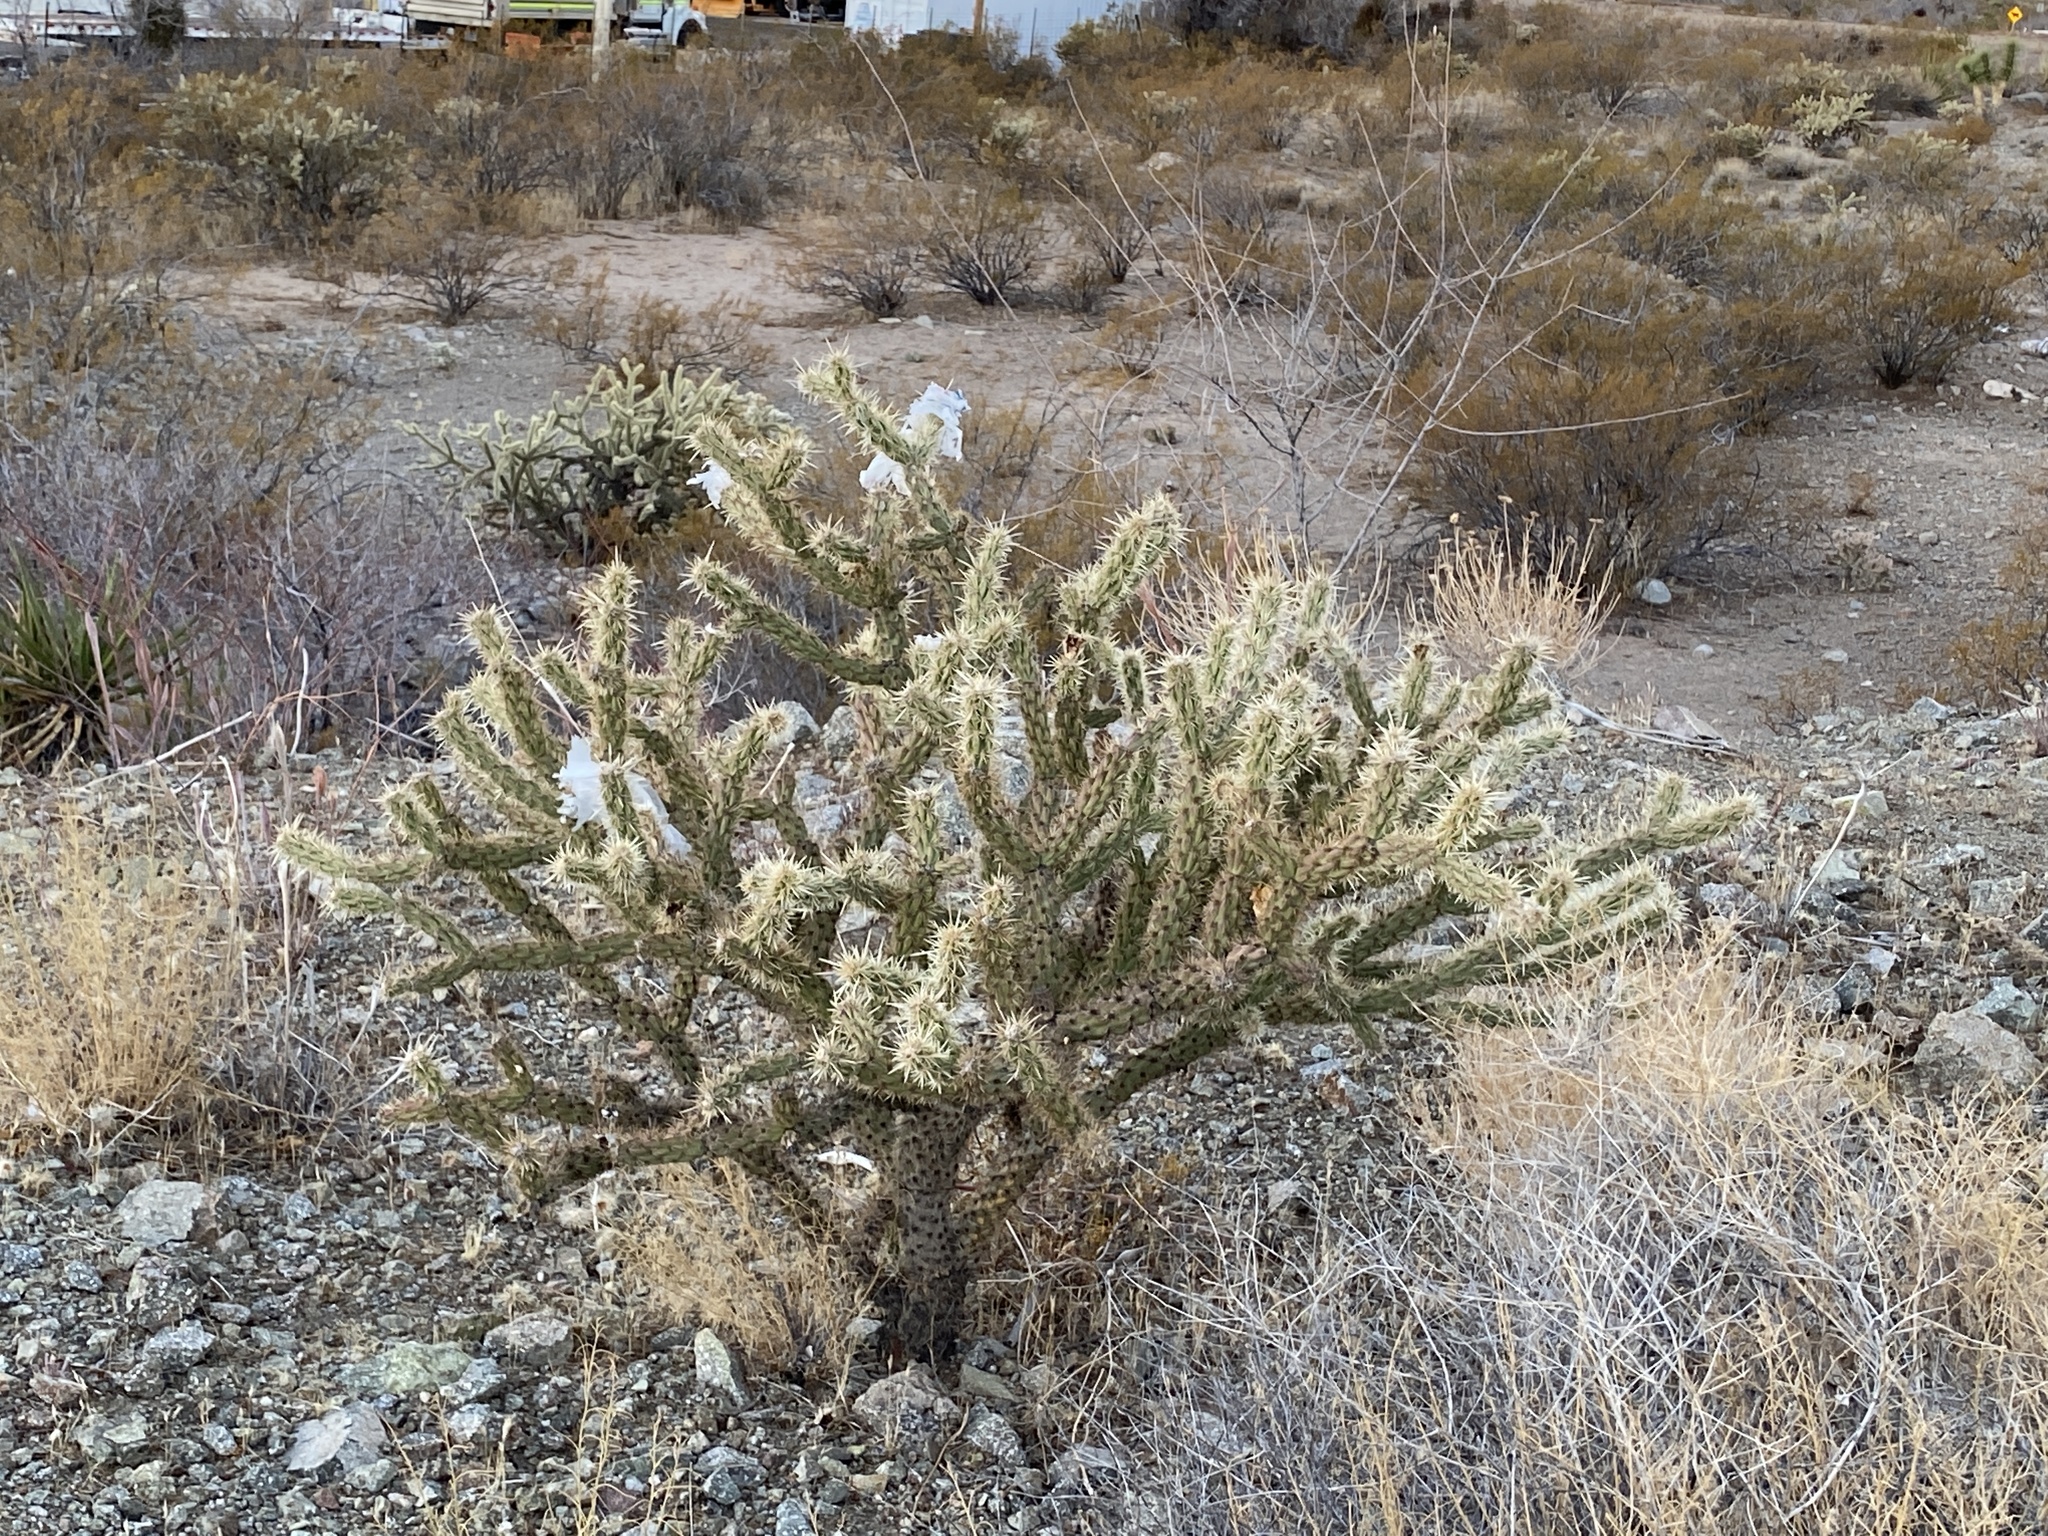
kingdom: Plantae
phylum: Tracheophyta
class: Magnoliopsida
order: Caryophyllales
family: Cactaceae
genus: Cylindropuntia
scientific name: Cylindropuntia acanthocarpa
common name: Buckhorn cholla
